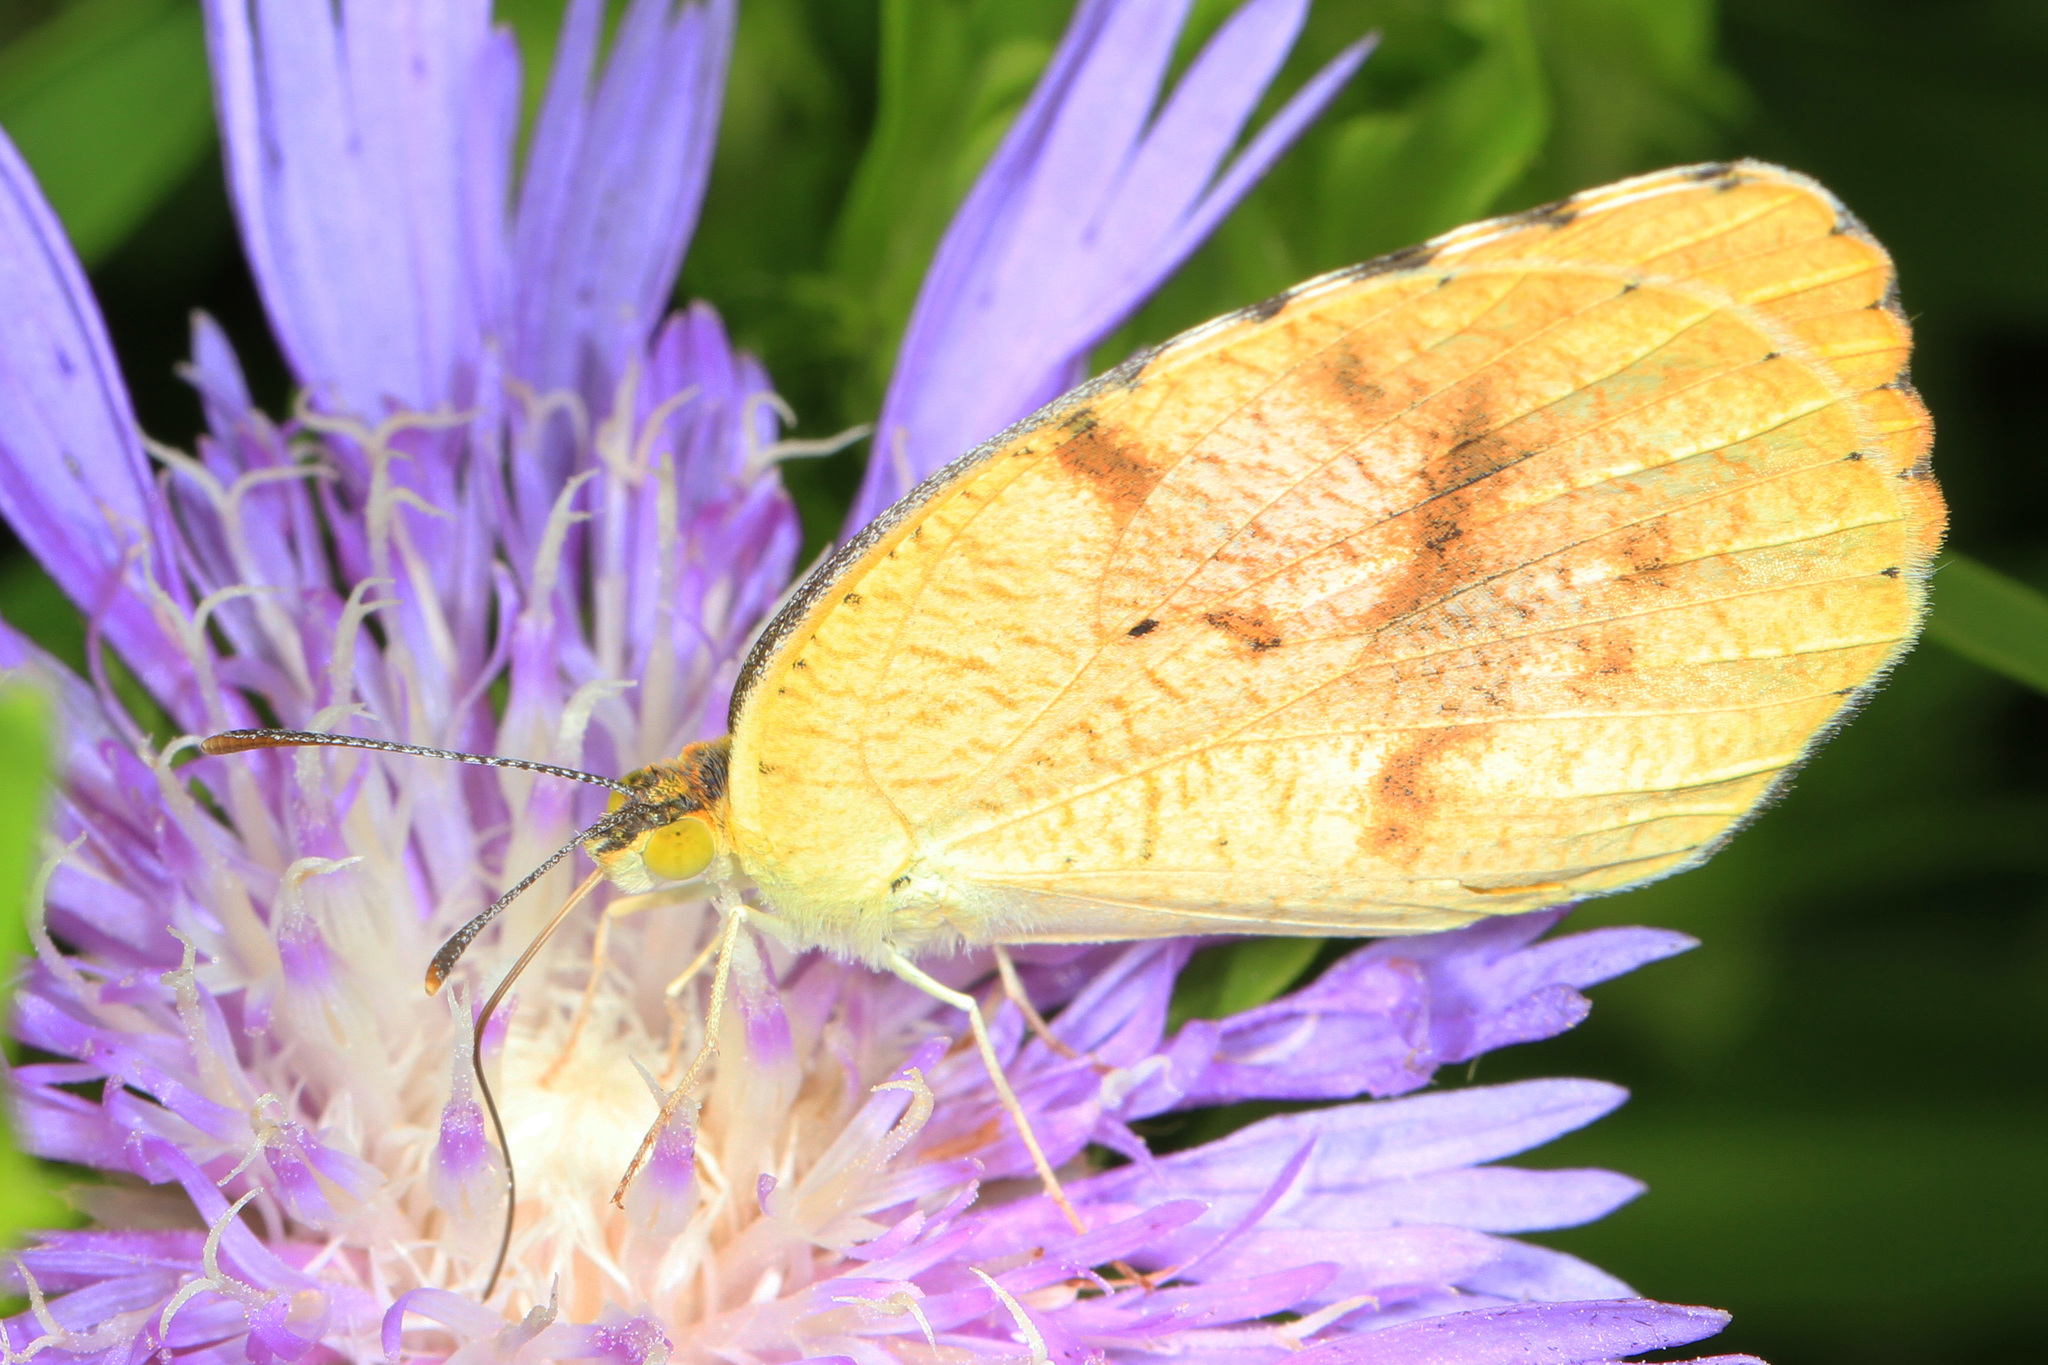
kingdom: Animalia
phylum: Arthropoda
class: Insecta
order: Lepidoptera
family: Pieridae
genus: Abaeis
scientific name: Abaeis nicippe
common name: Sleepy orange
